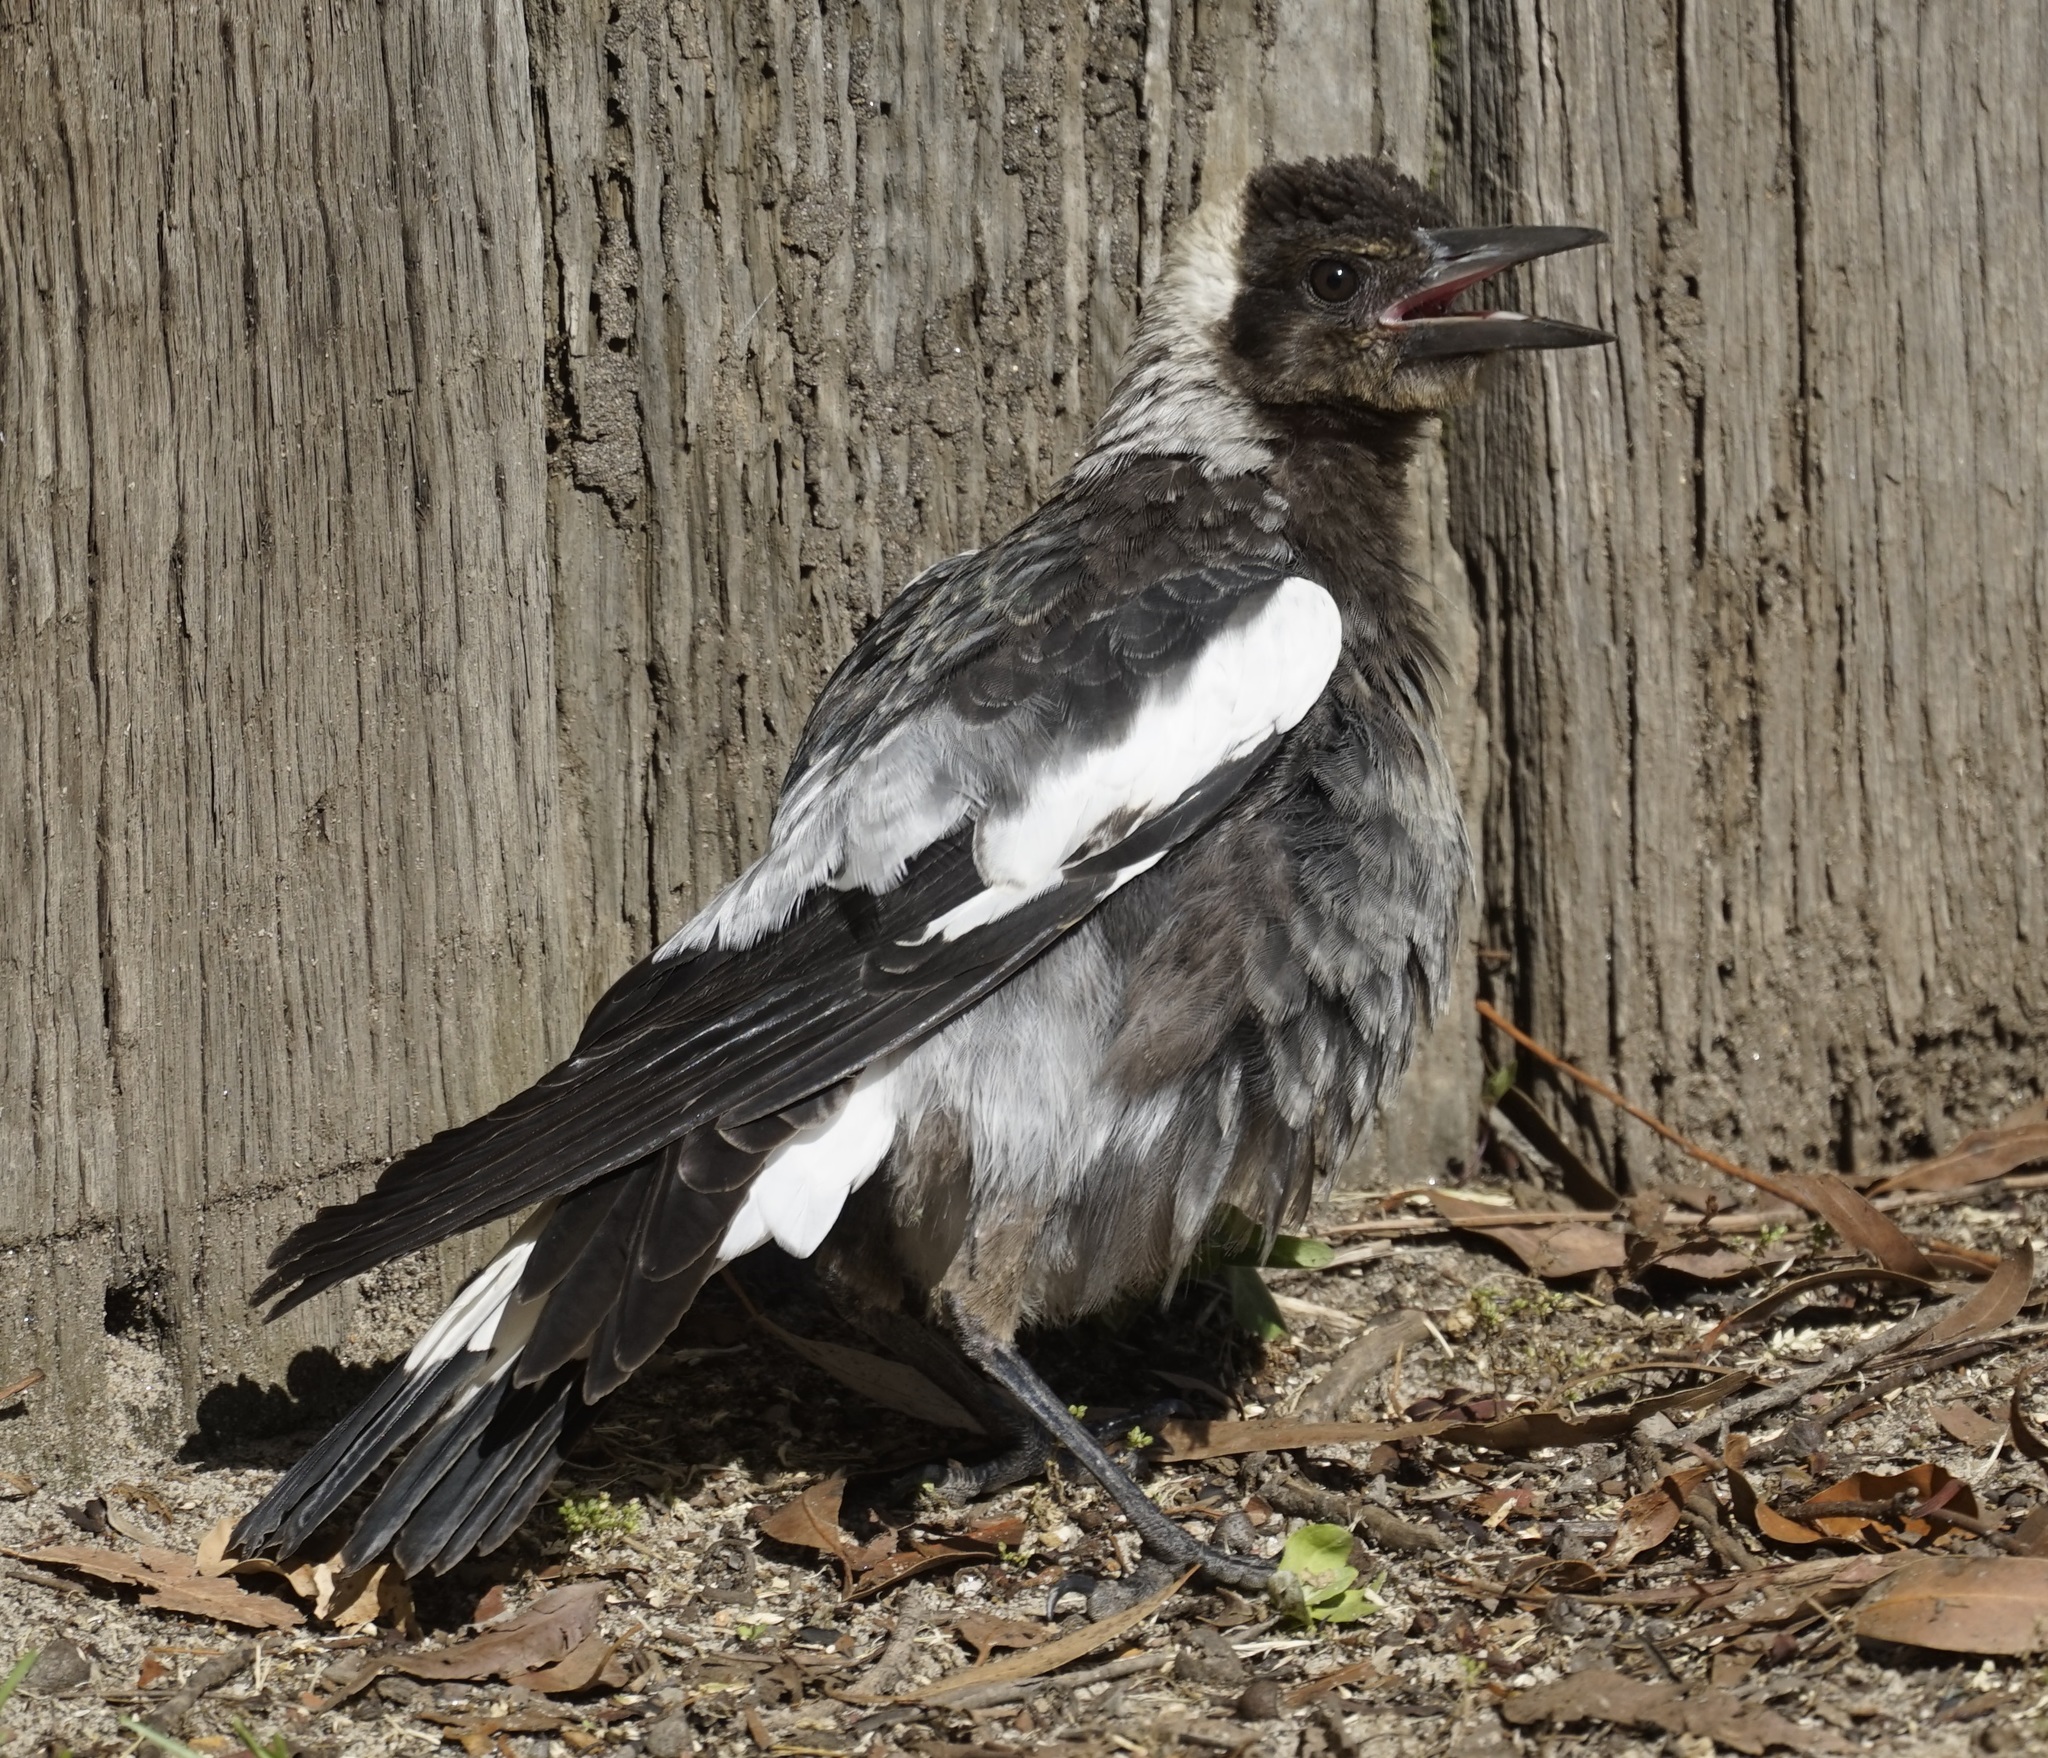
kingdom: Animalia
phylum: Chordata
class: Aves
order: Passeriformes
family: Cracticidae
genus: Gymnorhina
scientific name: Gymnorhina tibicen
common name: Australian magpie
